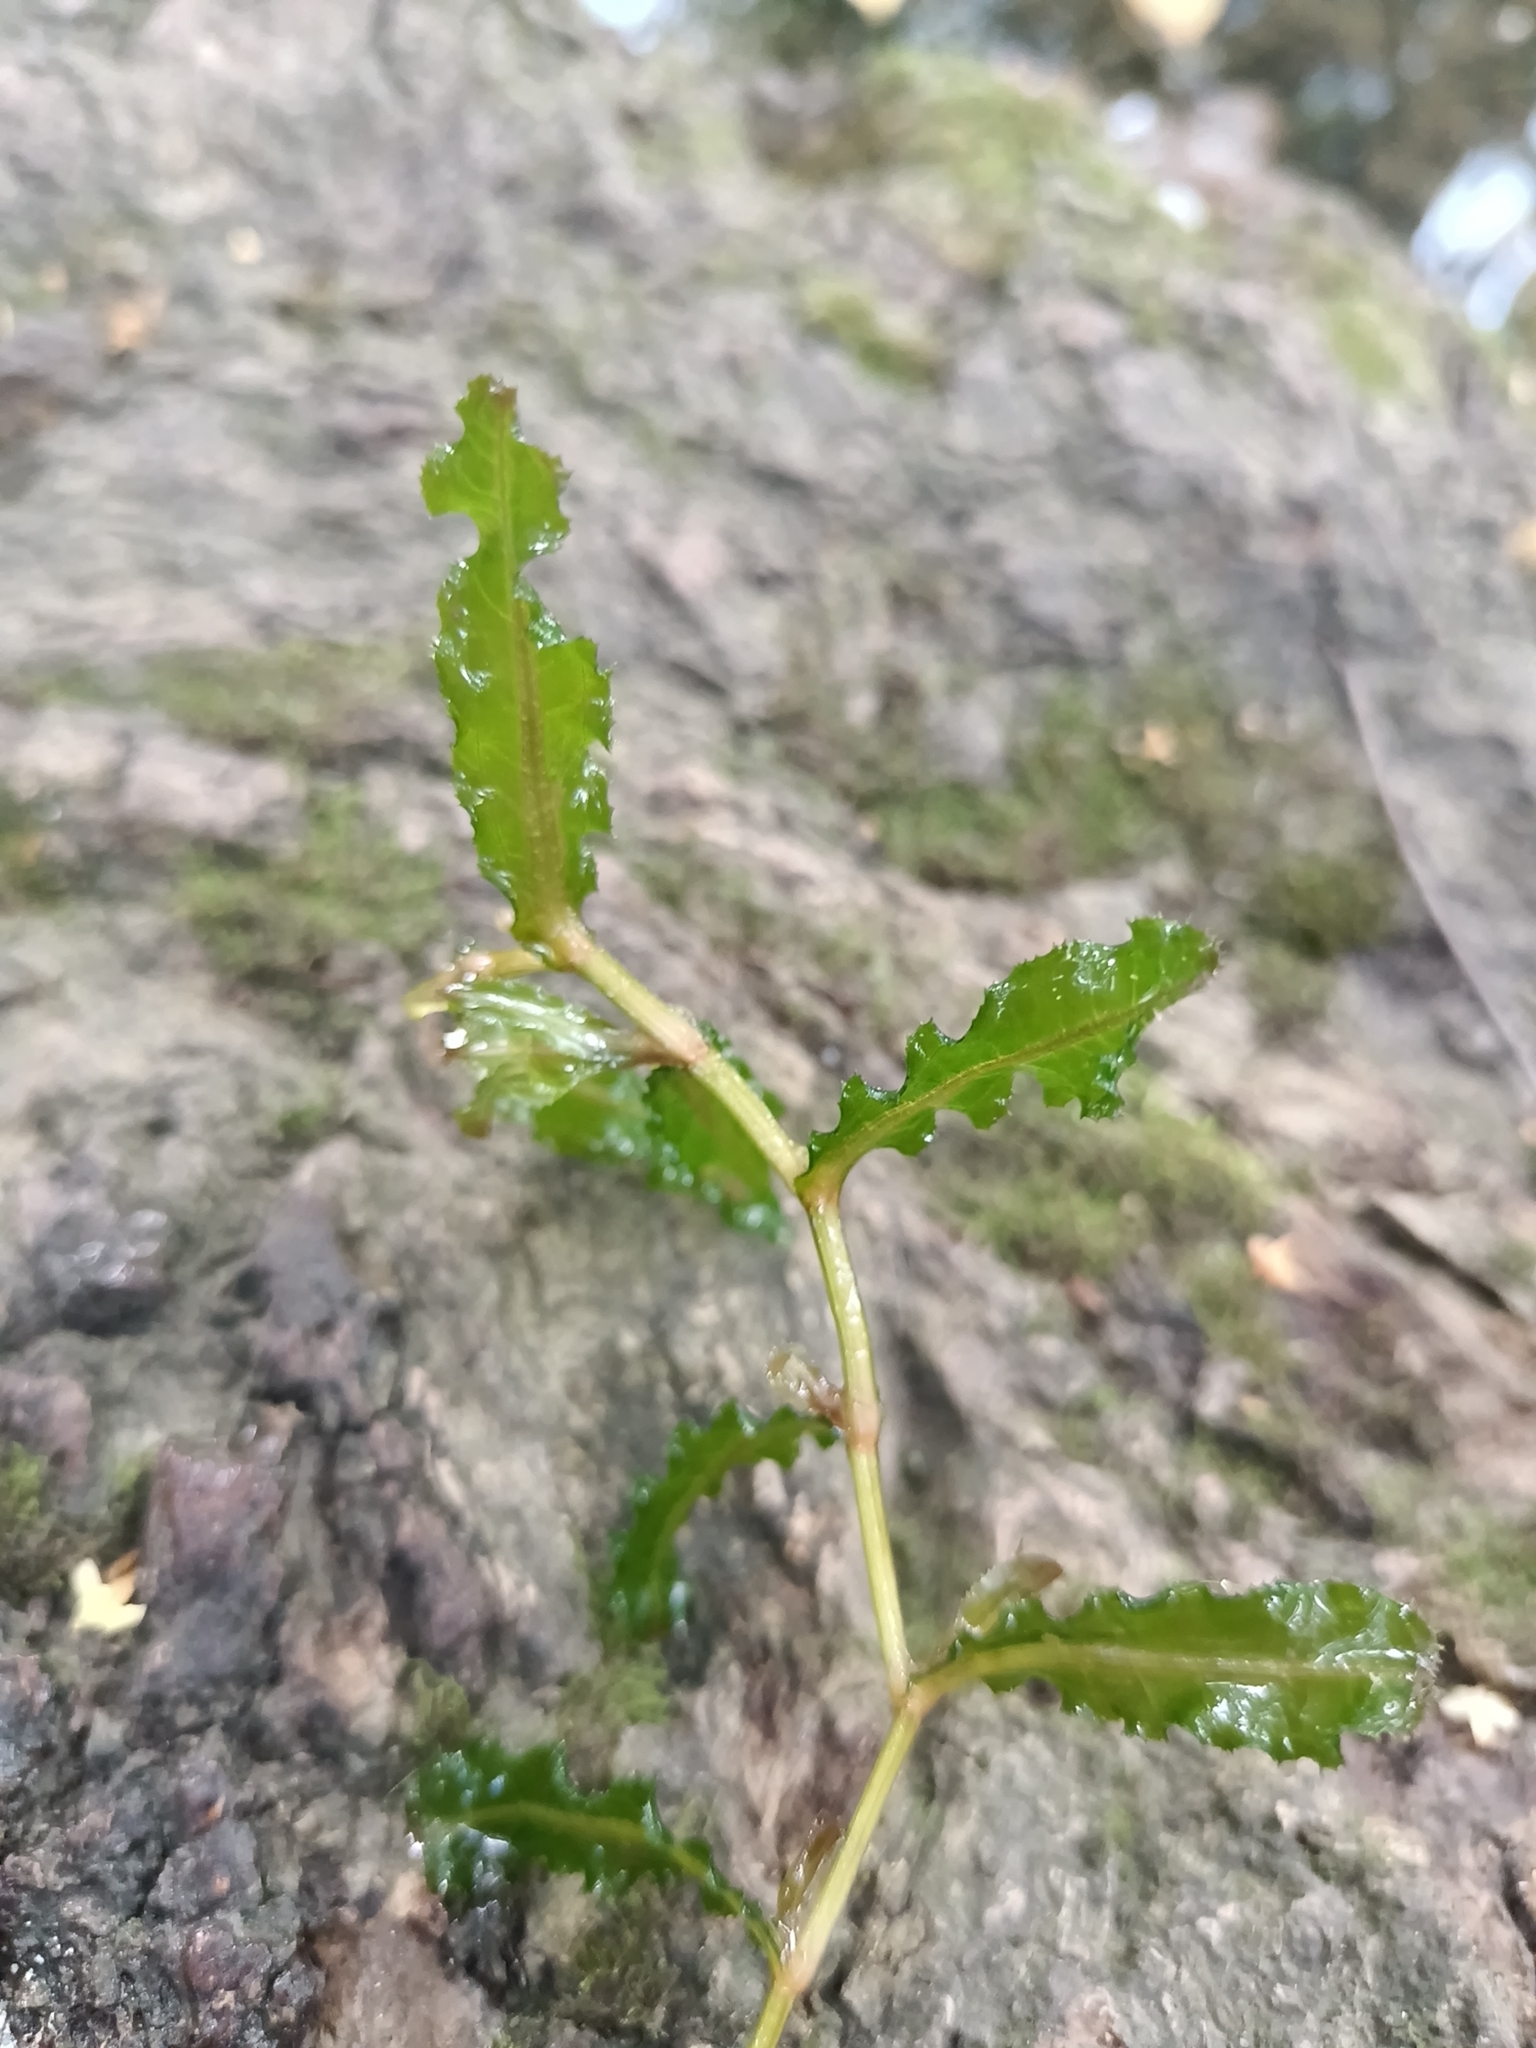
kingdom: Plantae
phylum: Tracheophyta
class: Liliopsida
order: Alismatales
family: Potamogetonaceae
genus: Potamogeton
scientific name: Potamogeton crispus
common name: Curled pondweed
